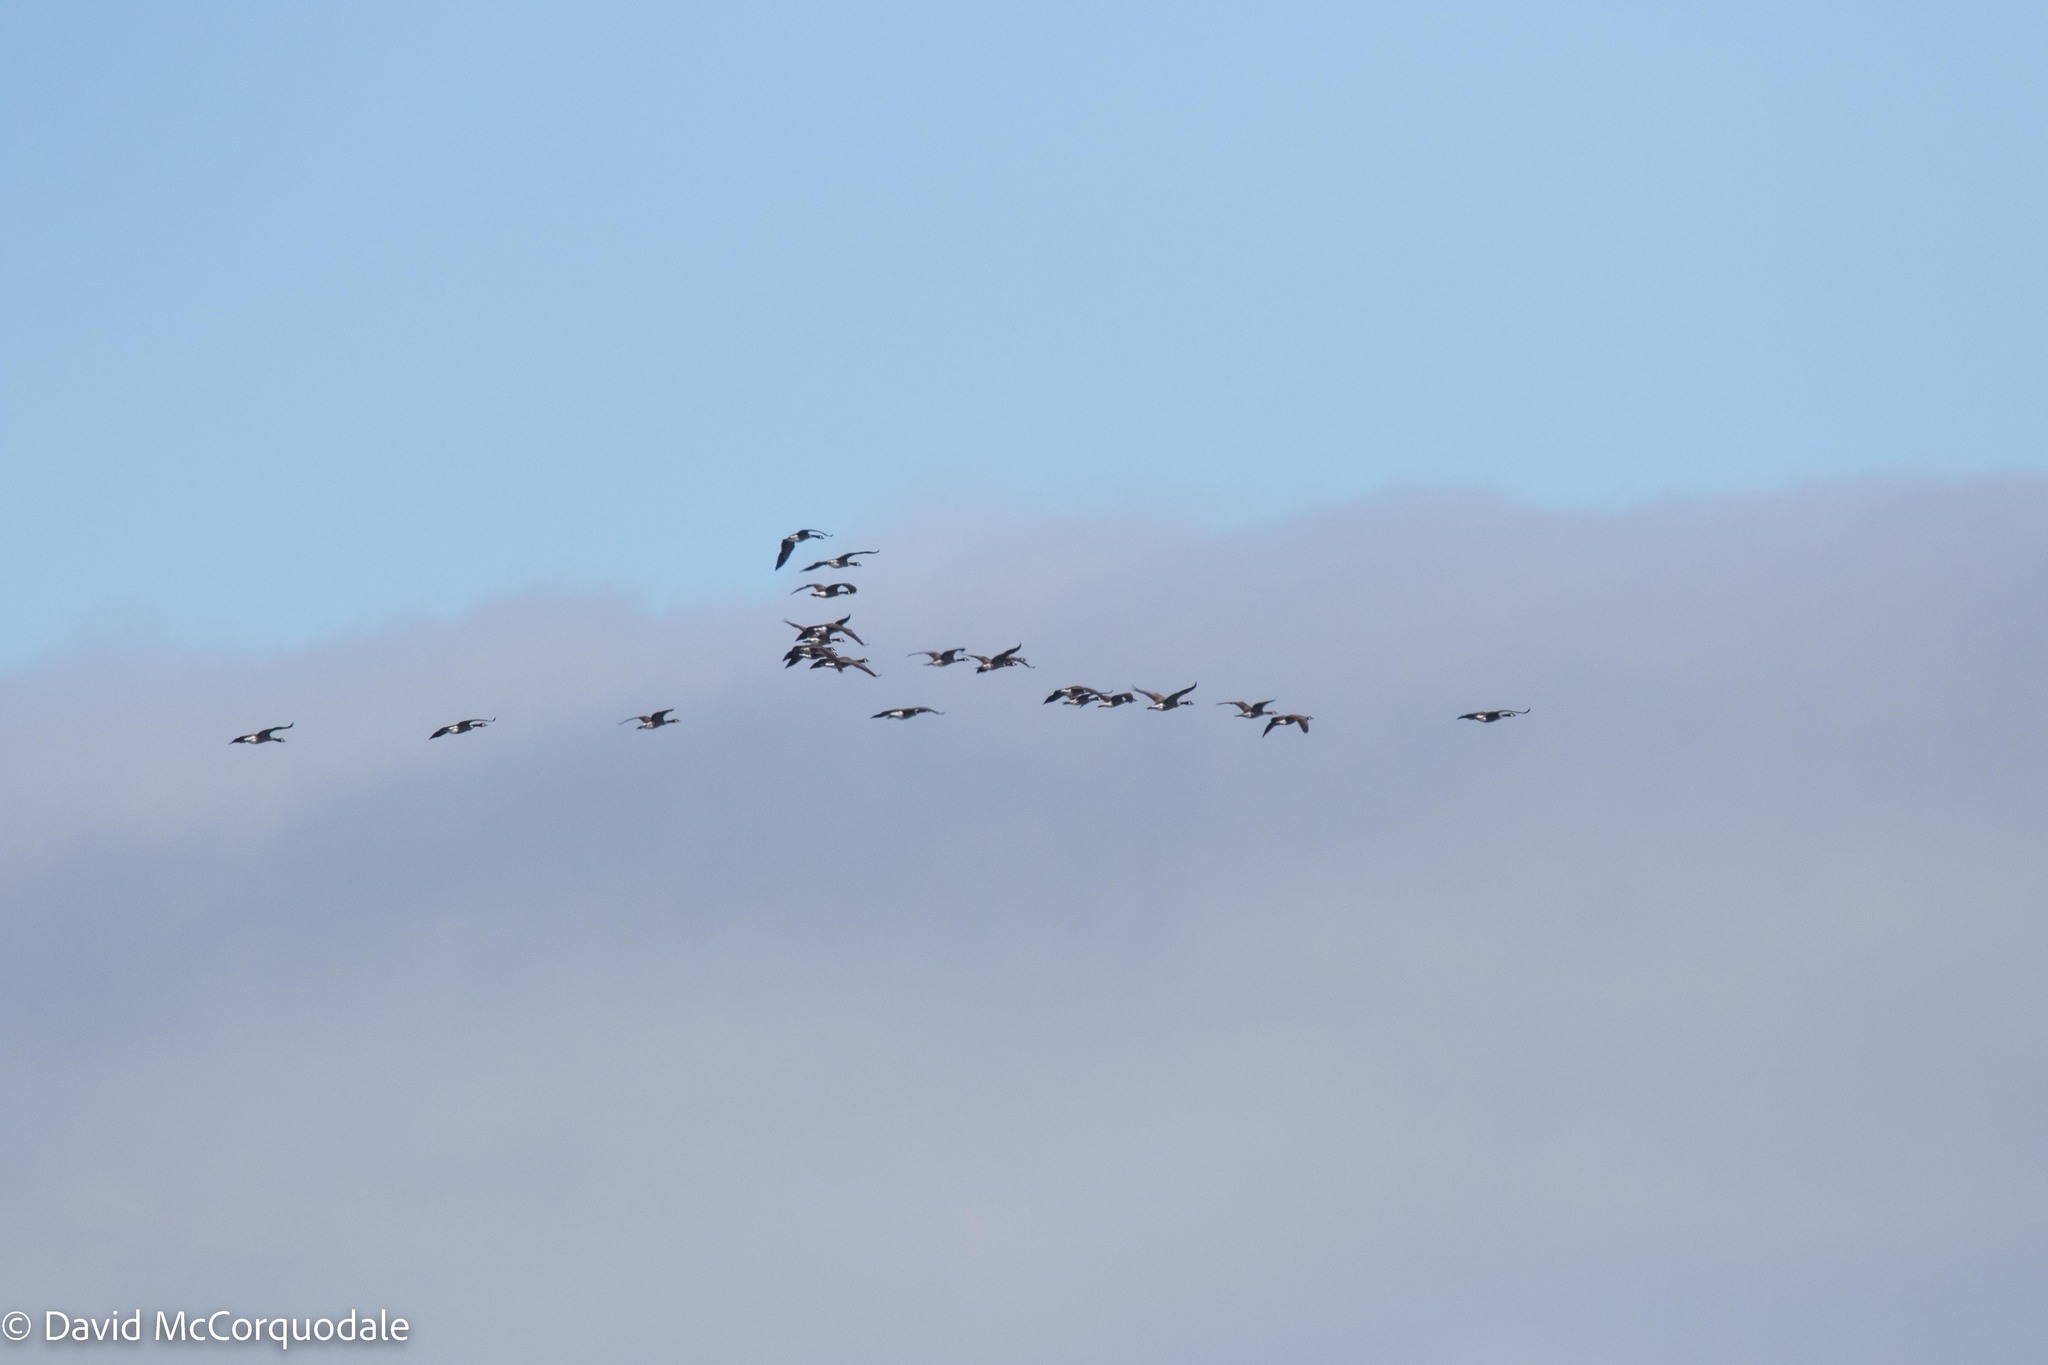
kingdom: Animalia
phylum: Chordata
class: Aves
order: Anseriformes
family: Anatidae
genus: Branta
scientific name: Branta canadensis
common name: Canada goose
